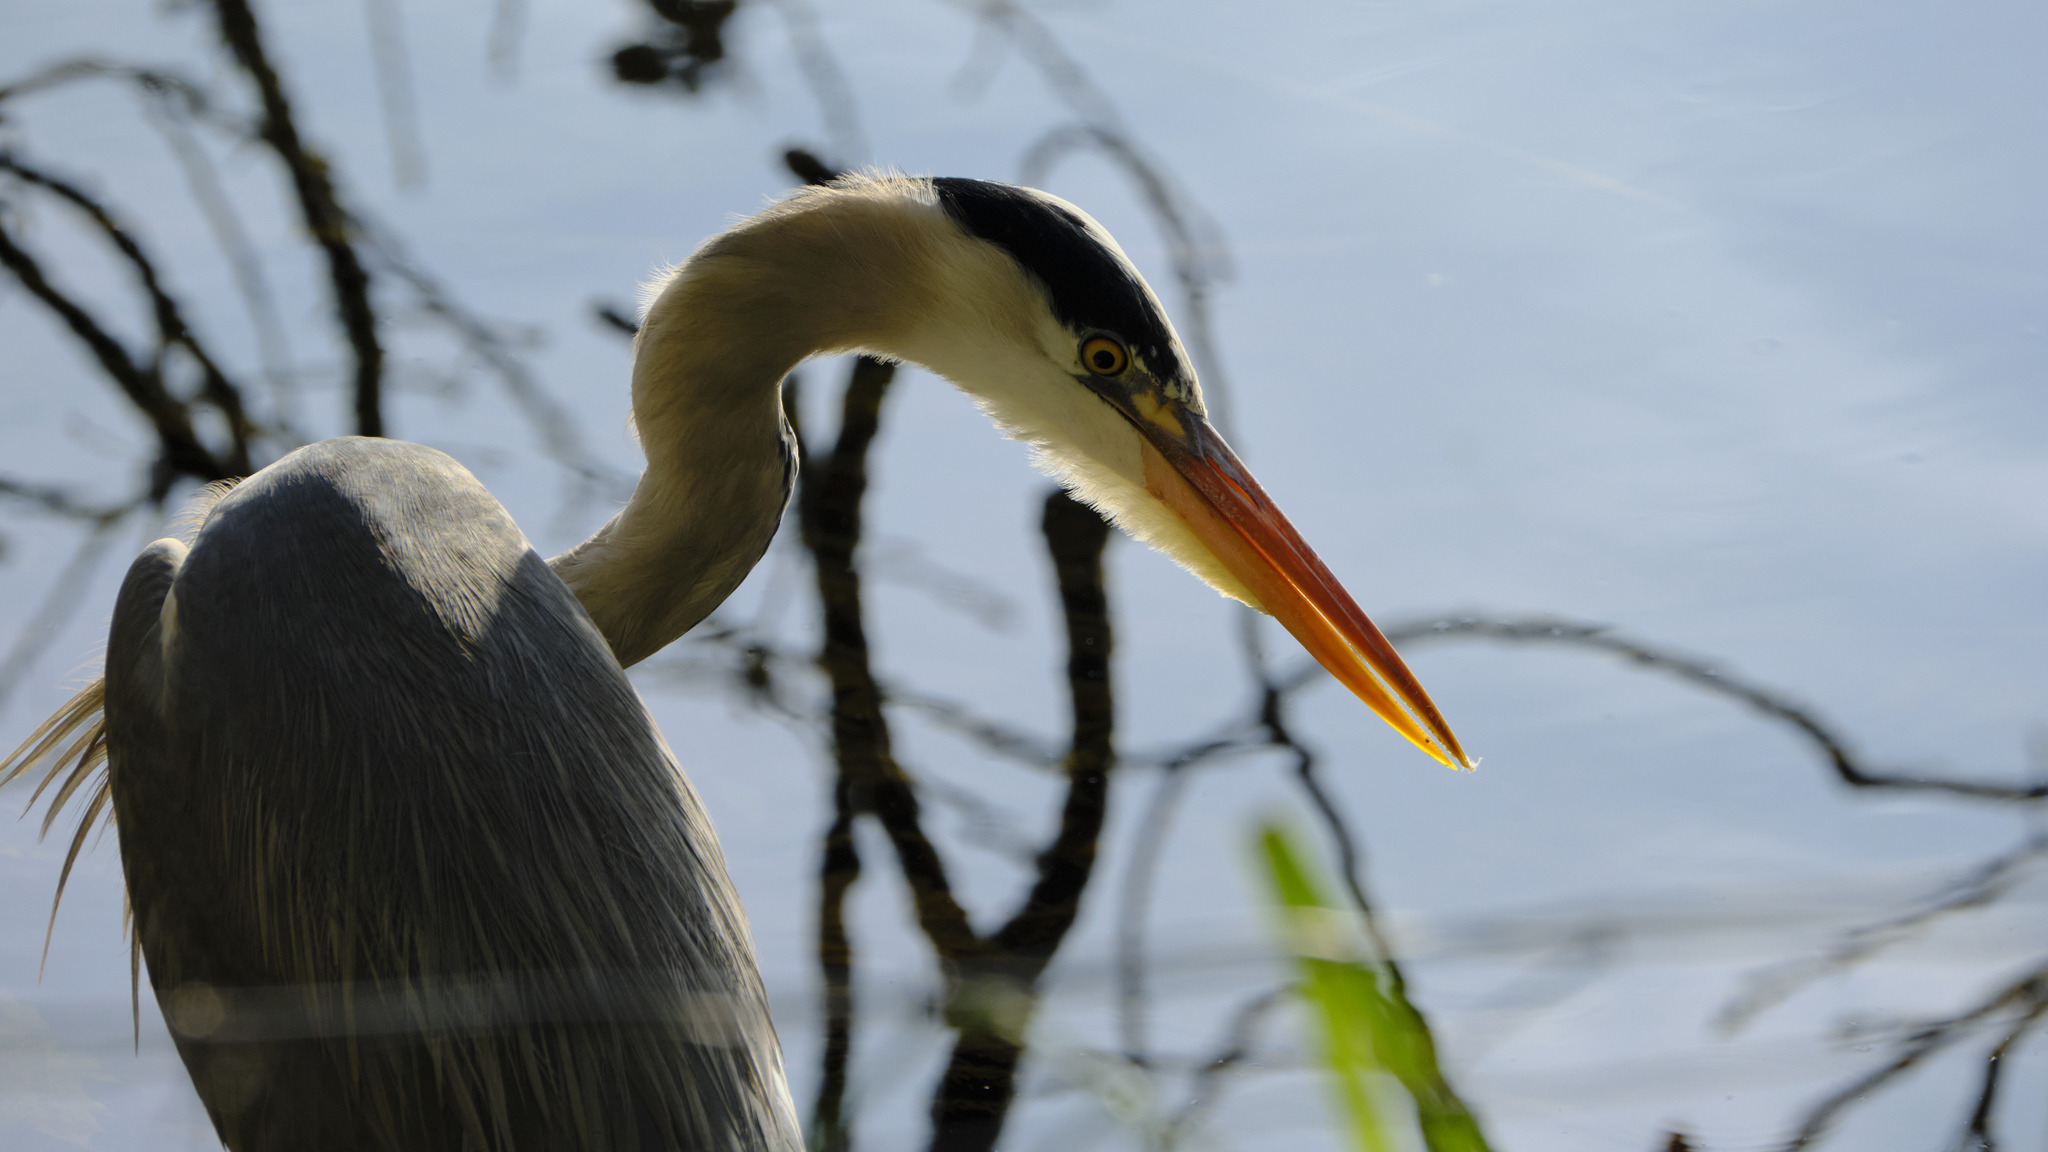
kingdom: Animalia
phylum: Chordata
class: Aves
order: Pelecaniformes
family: Ardeidae
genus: Ardea
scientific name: Ardea cinerea
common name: Grey heron
